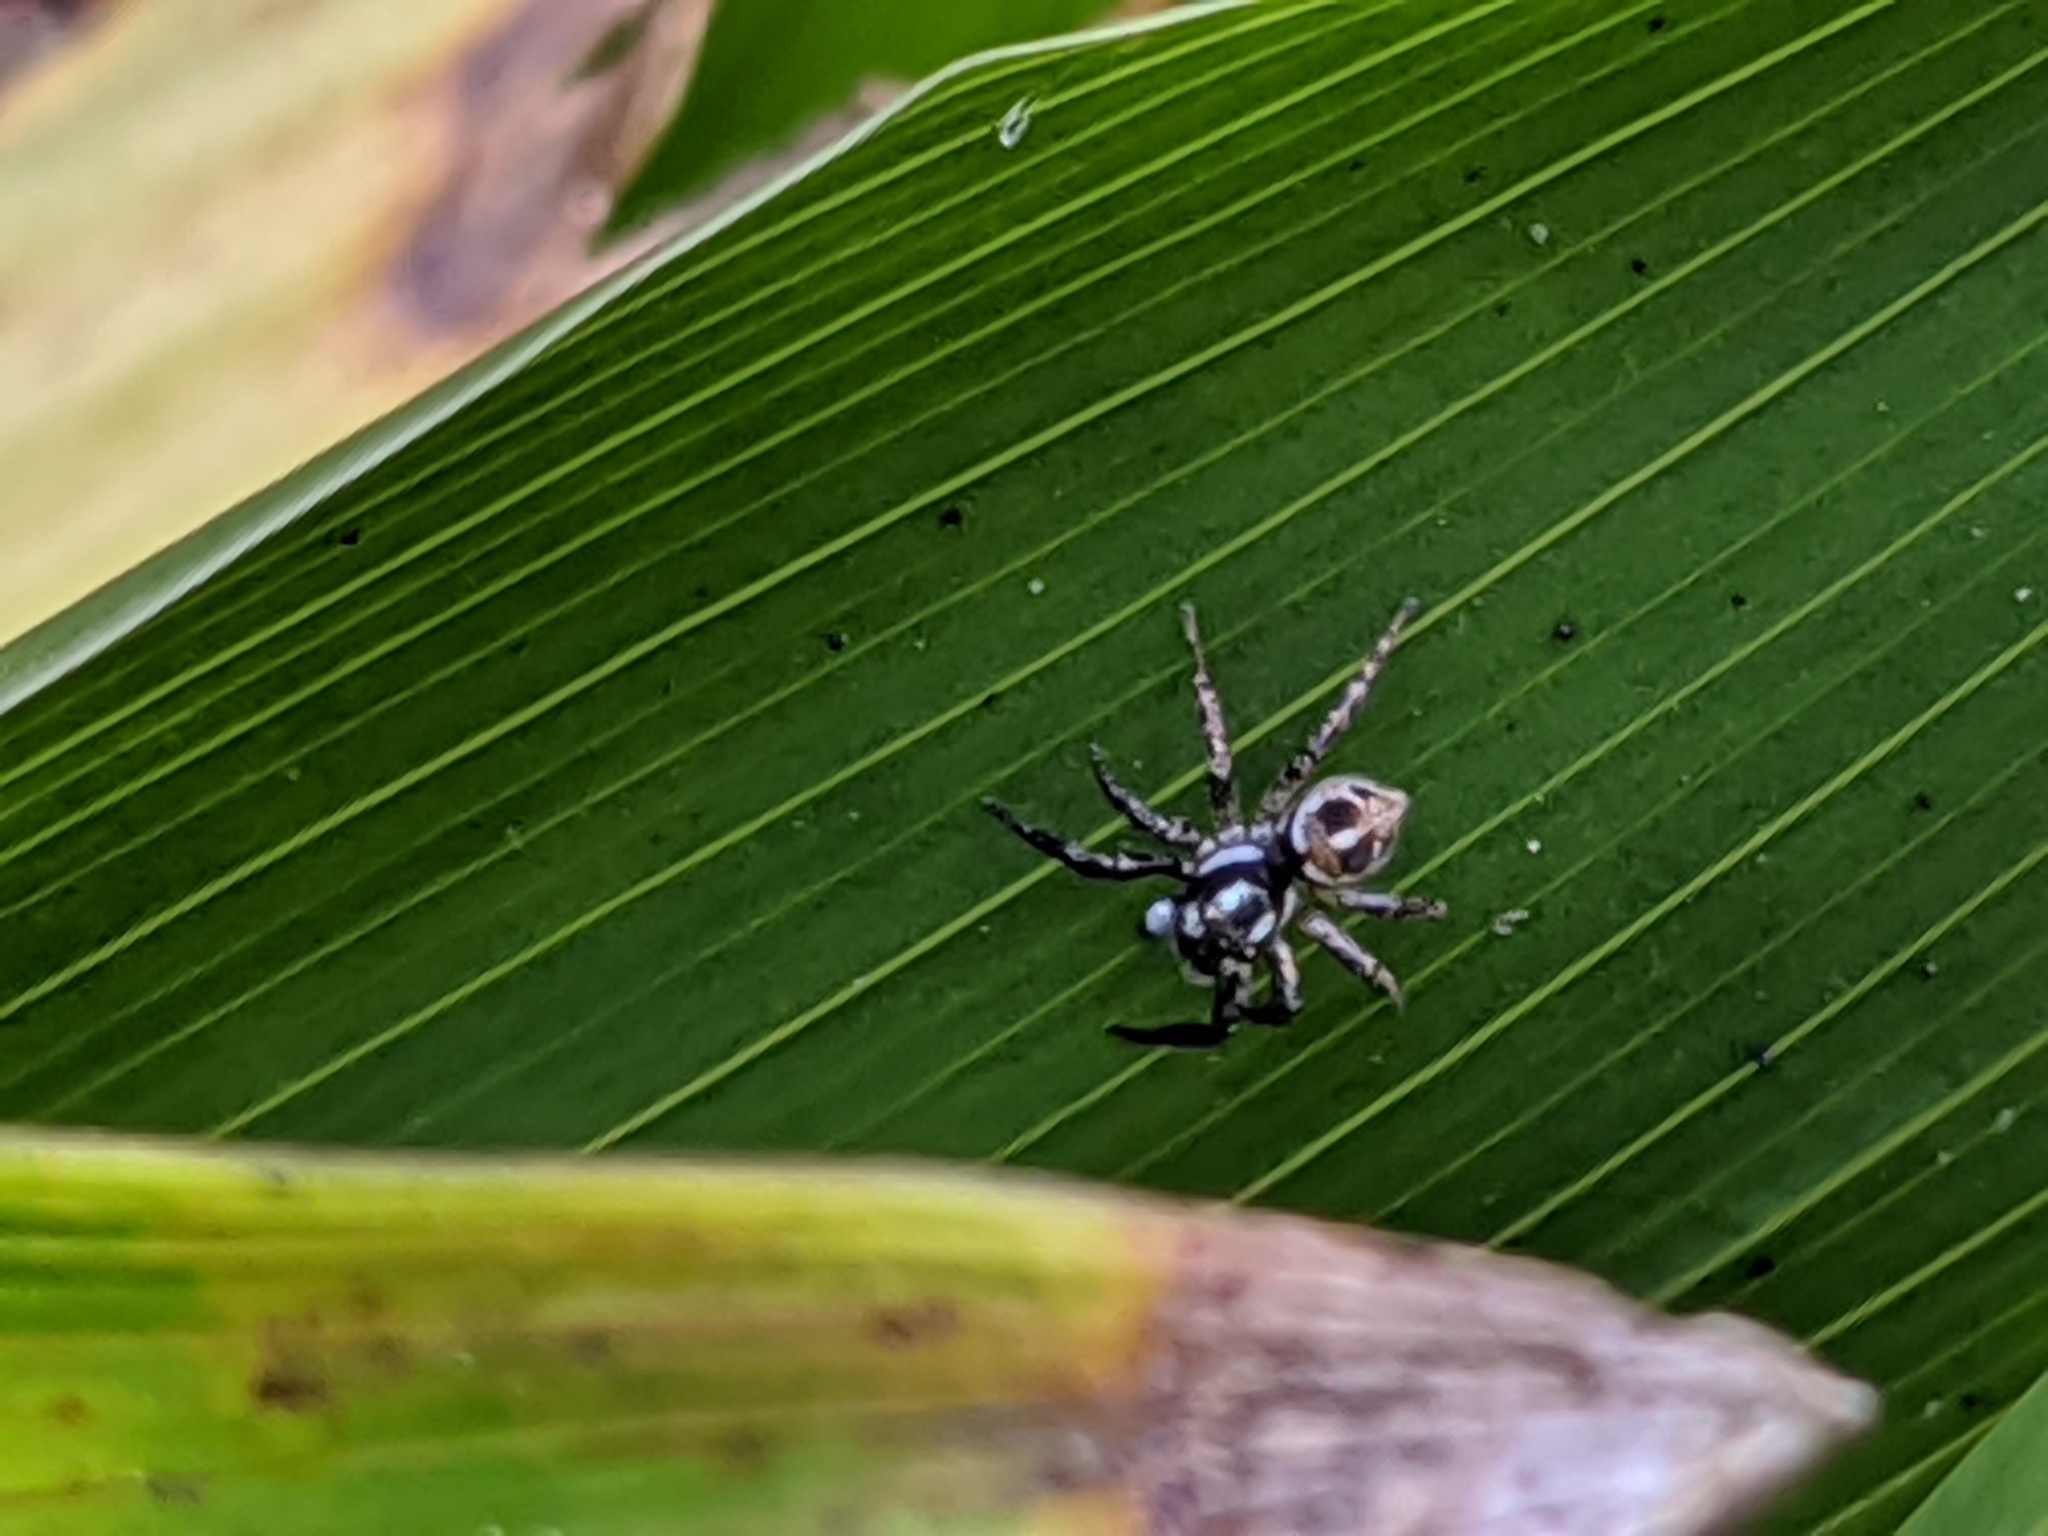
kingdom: Animalia
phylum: Arthropoda
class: Arachnida
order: Araneae
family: Salticidae
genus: Anasaitis
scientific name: Anasaitis canosa
